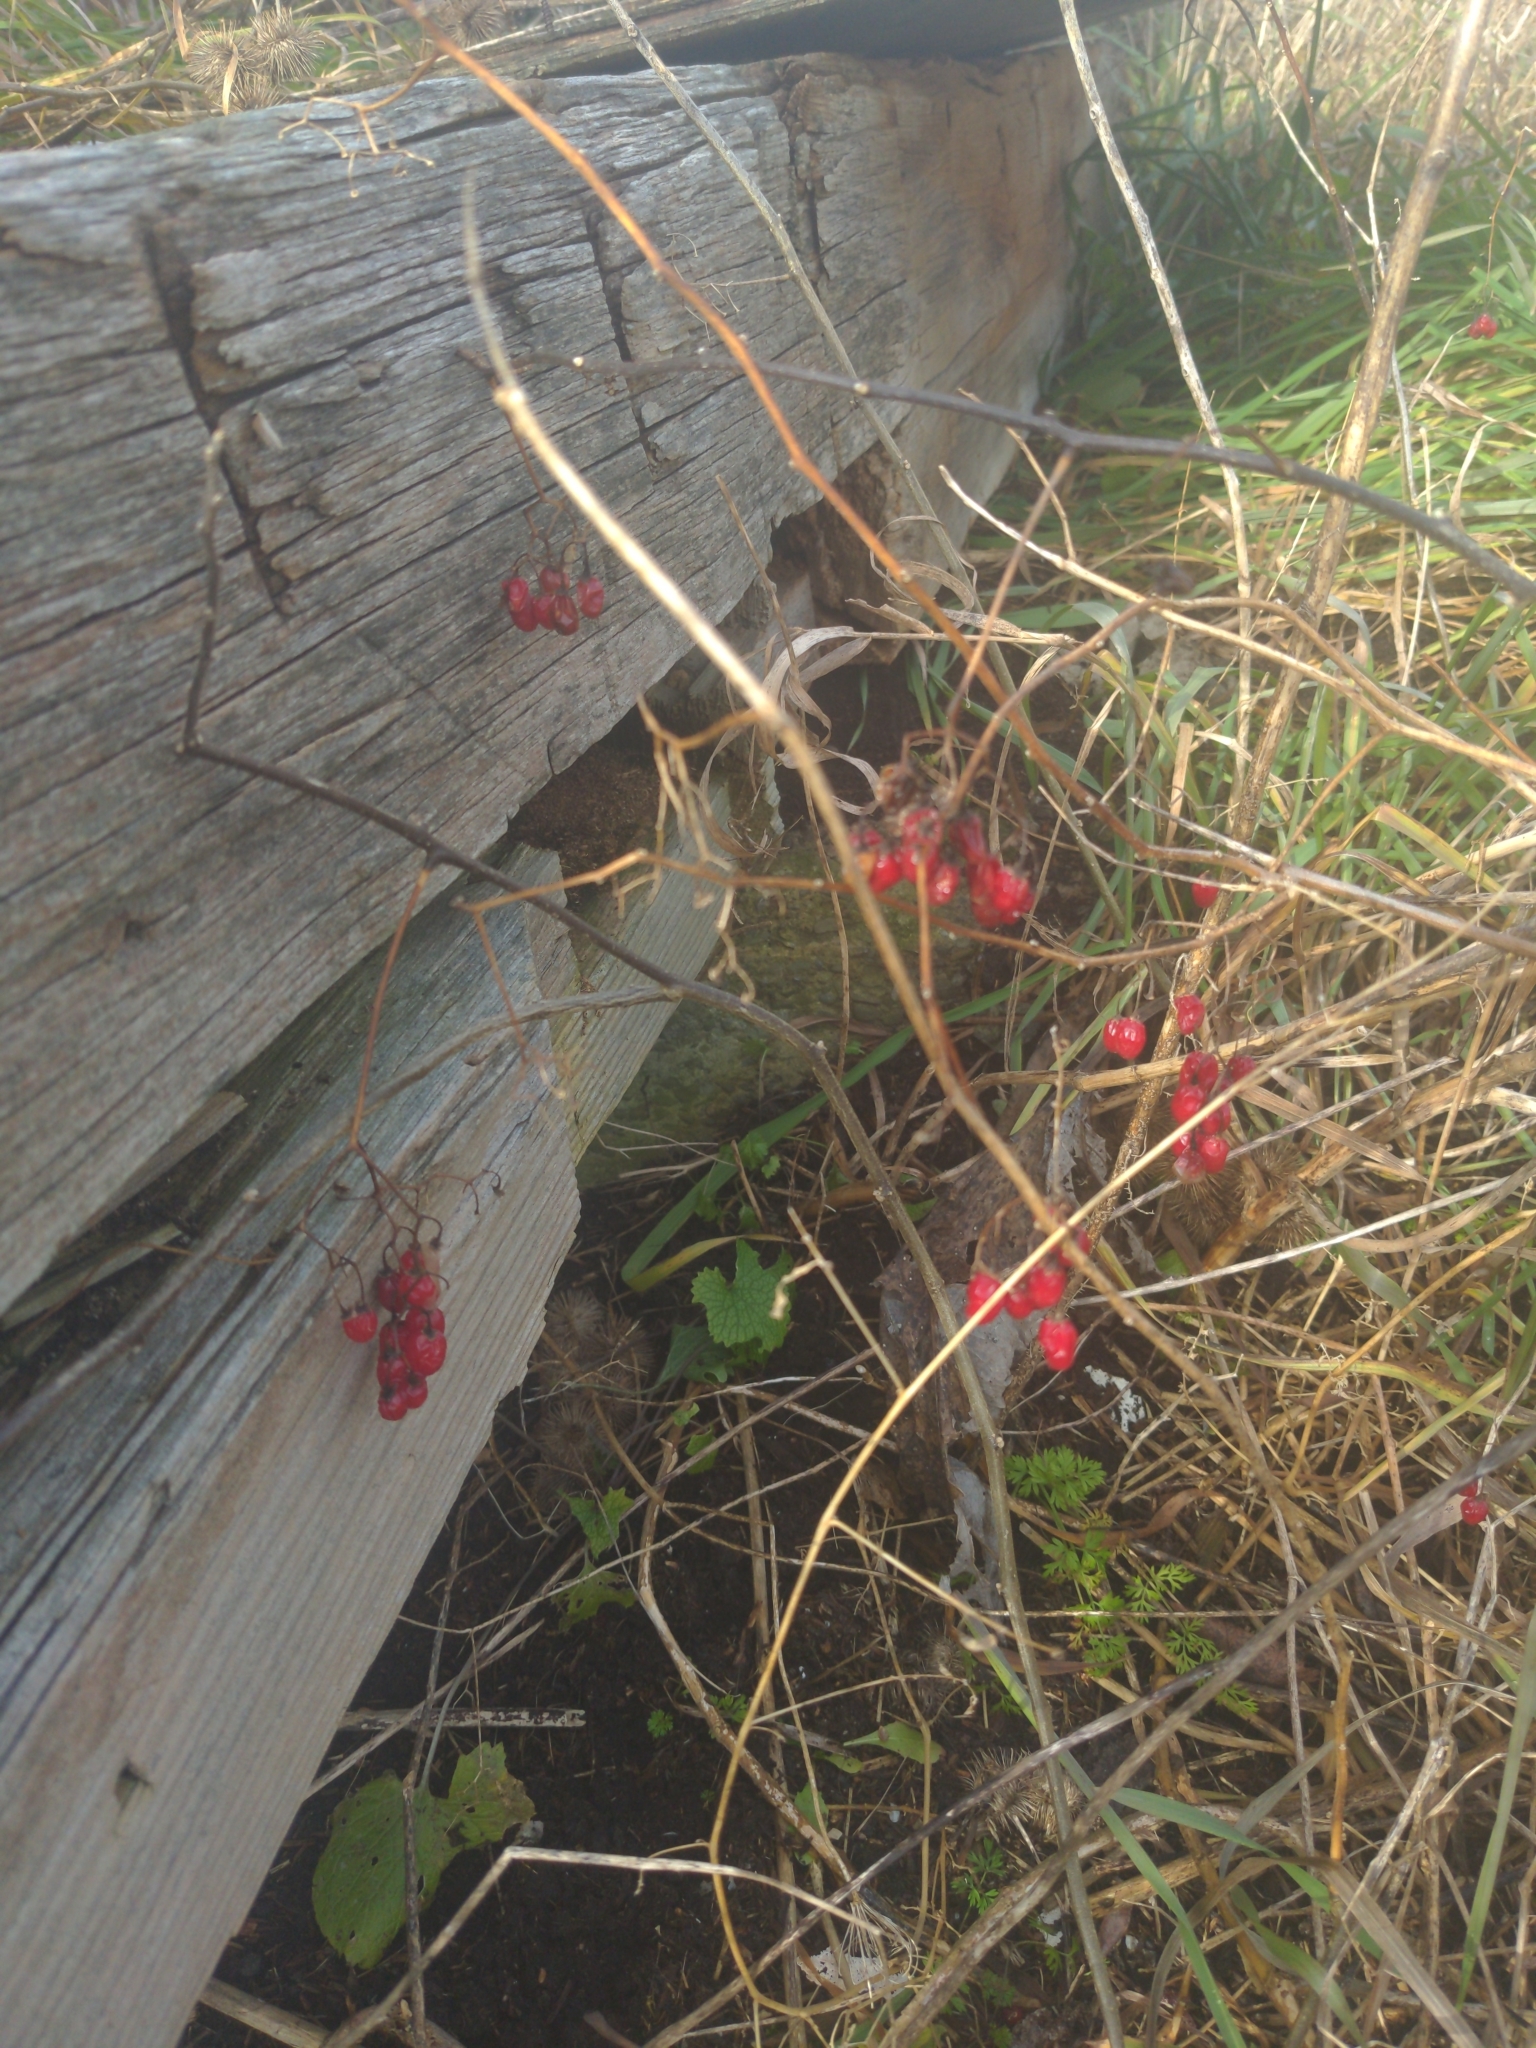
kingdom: Plantae
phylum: Tracheophyta
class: Magnoliopsida
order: Solanales
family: Solanaceae
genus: Solanum
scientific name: Solanum dulcamara
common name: Climbing nightshade
